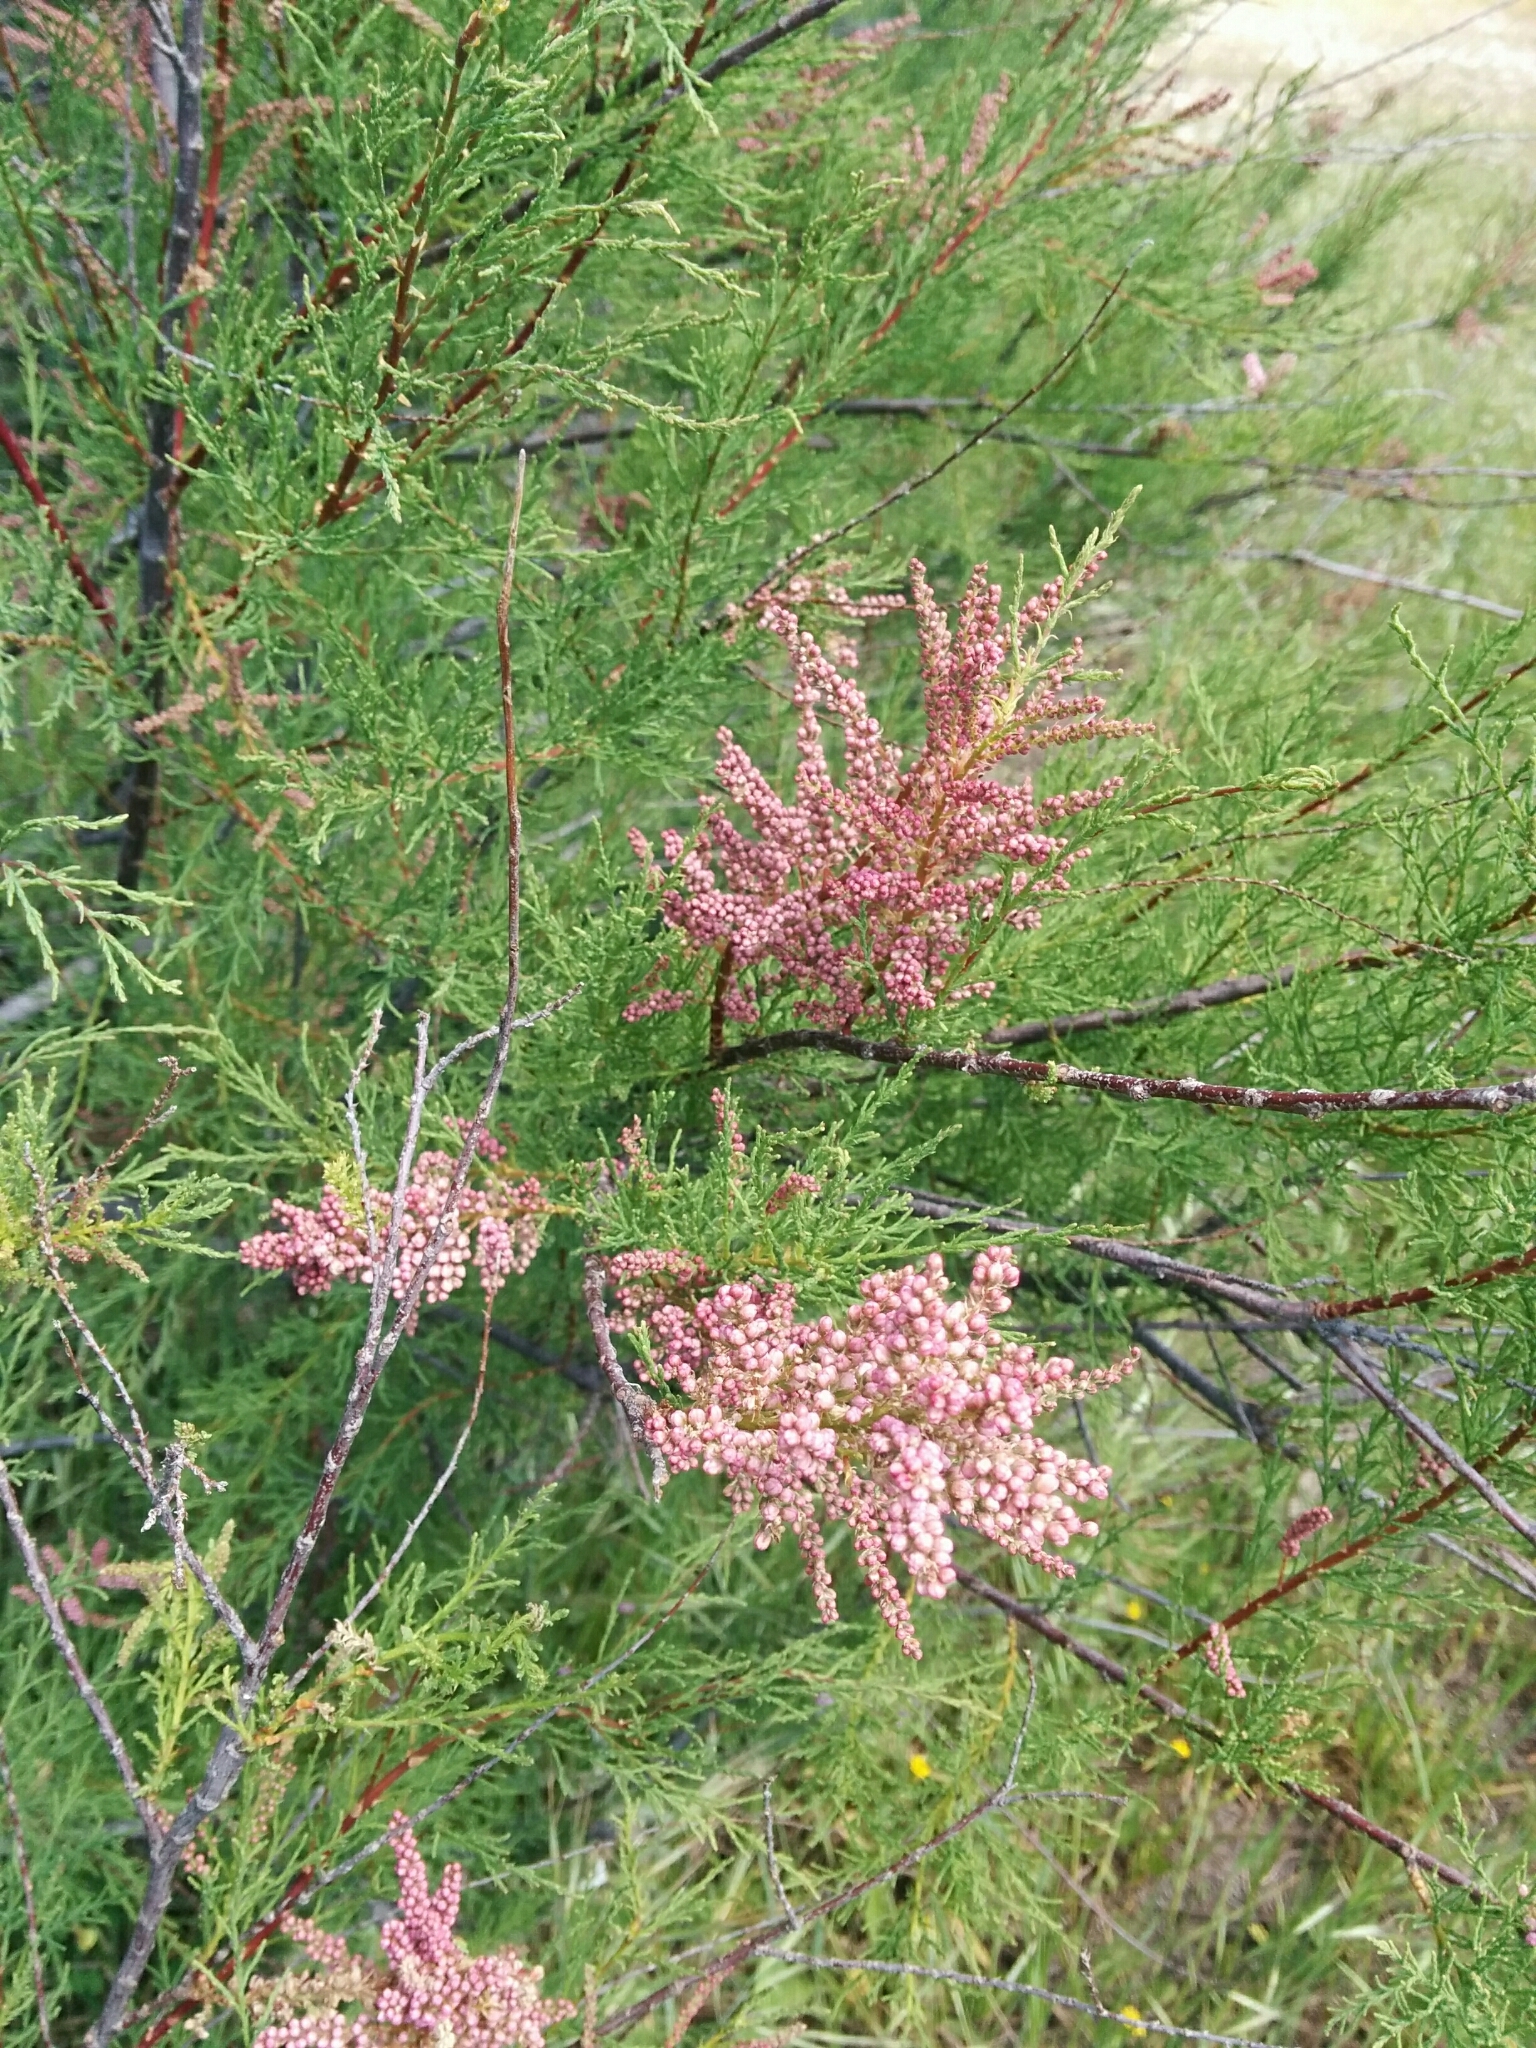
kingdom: Plantae
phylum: Tracheophyta
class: Magnoliopsida
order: Caryophyllales
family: Tamaricaceae
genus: Tamarix
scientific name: Tamarix gallica
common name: Tamarisk
